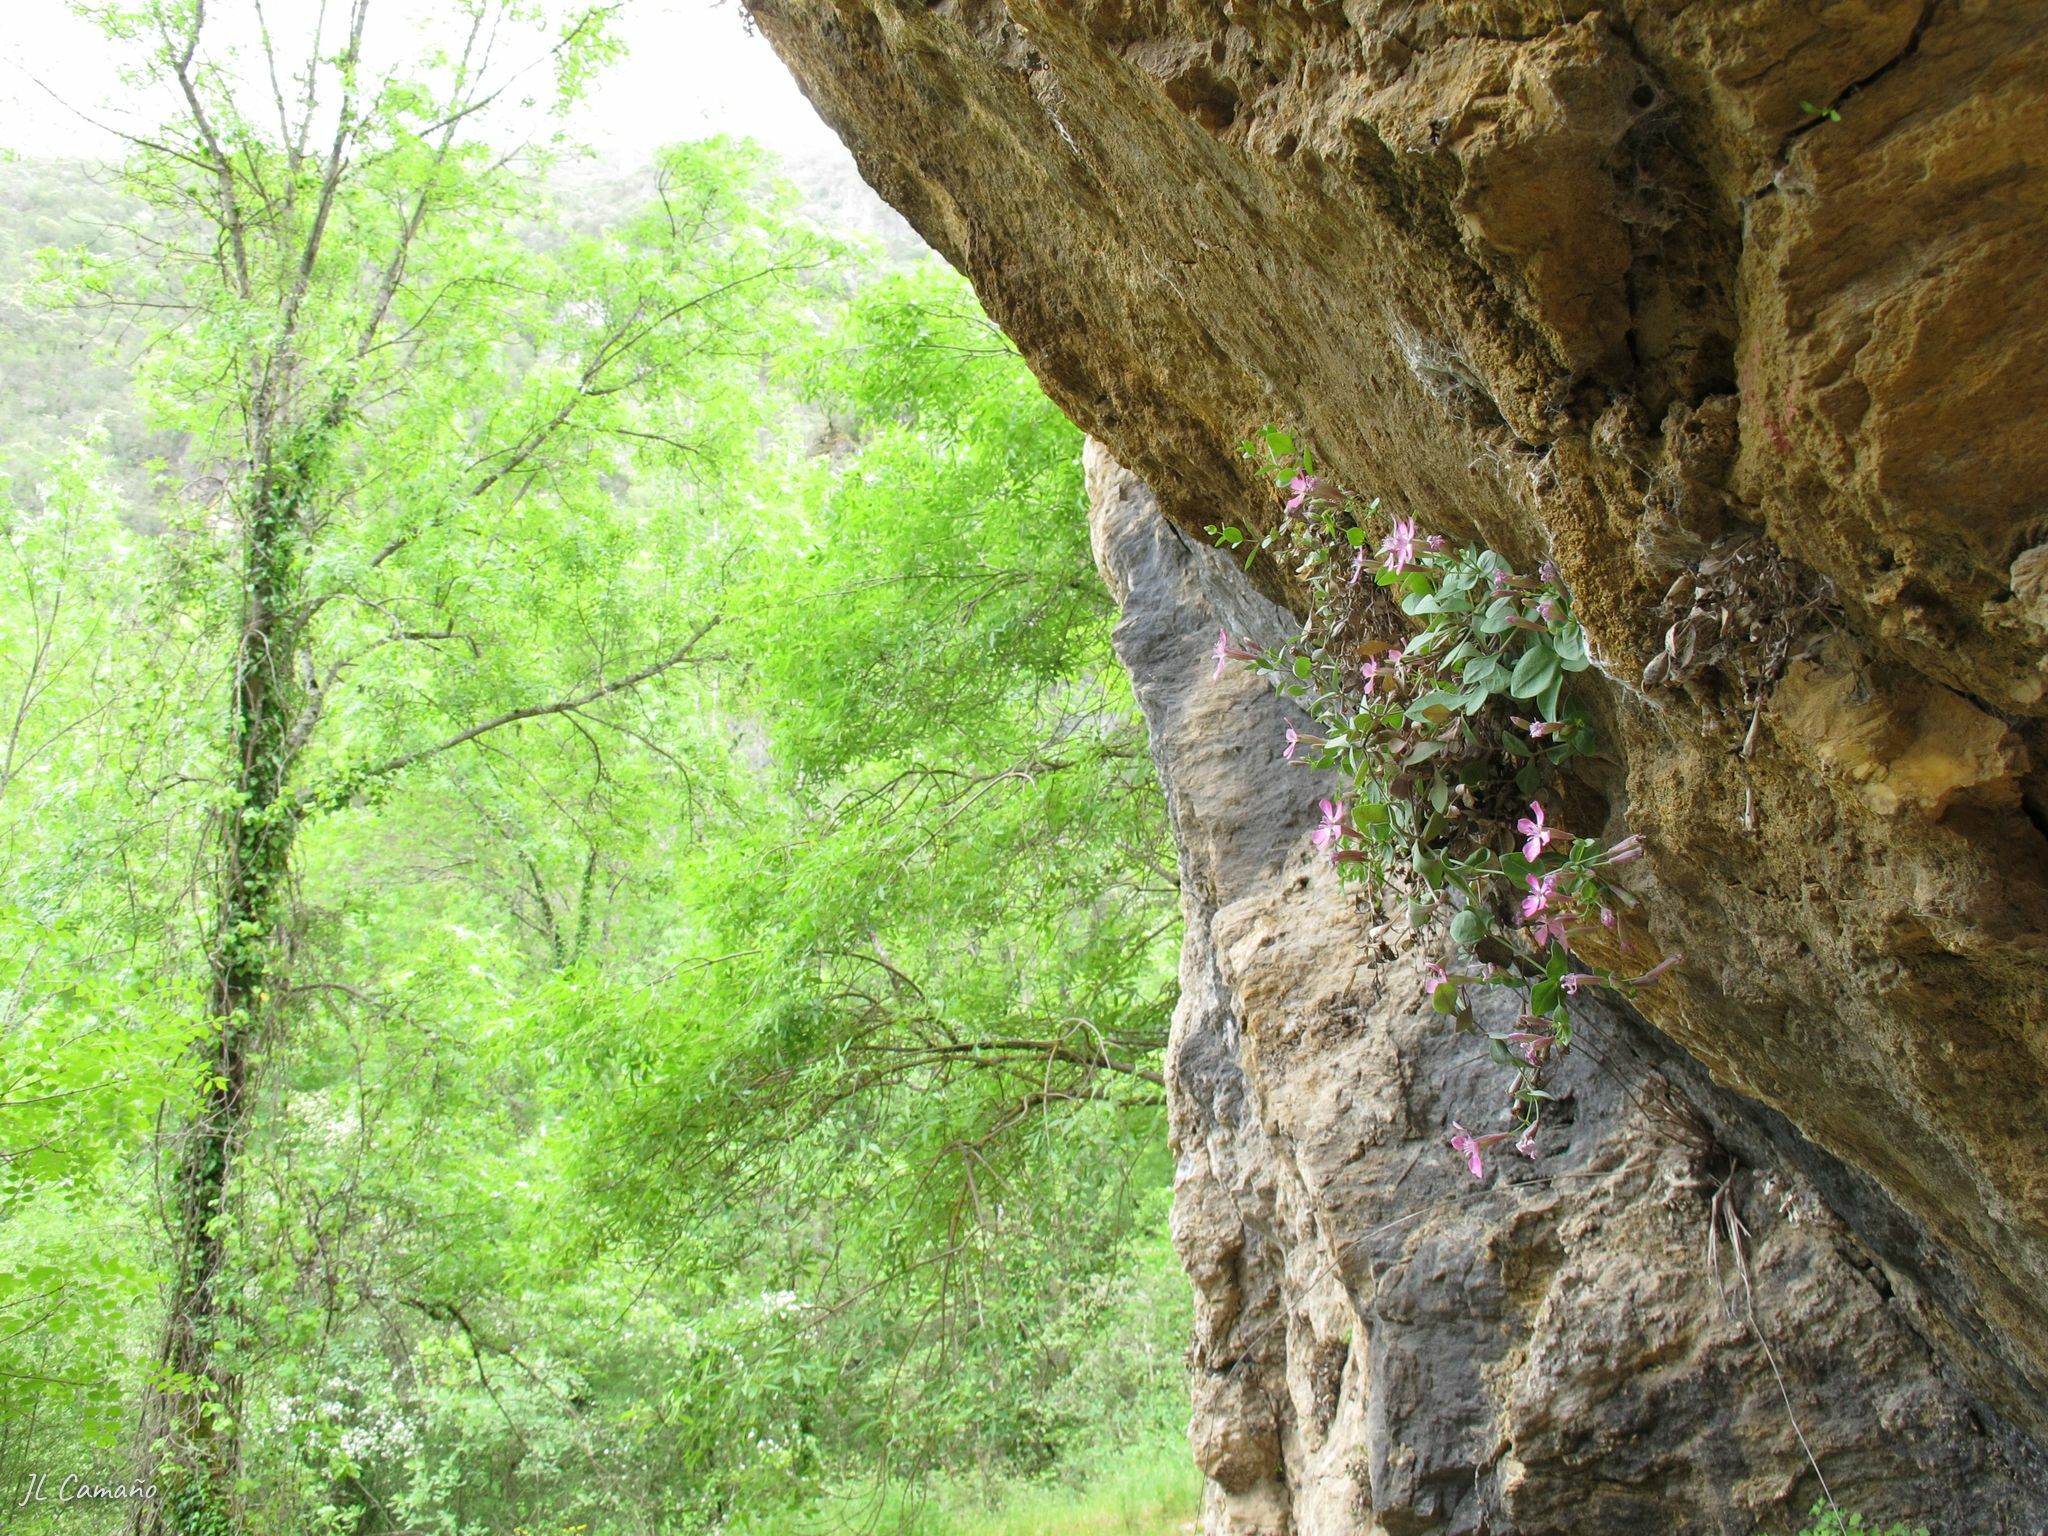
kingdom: Plantae
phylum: Tracheophyta
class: Magnoliopsida
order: Caryophyllales
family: Caryophyllaceae
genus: Petrocoptis
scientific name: Petrocoptis grandiflora
